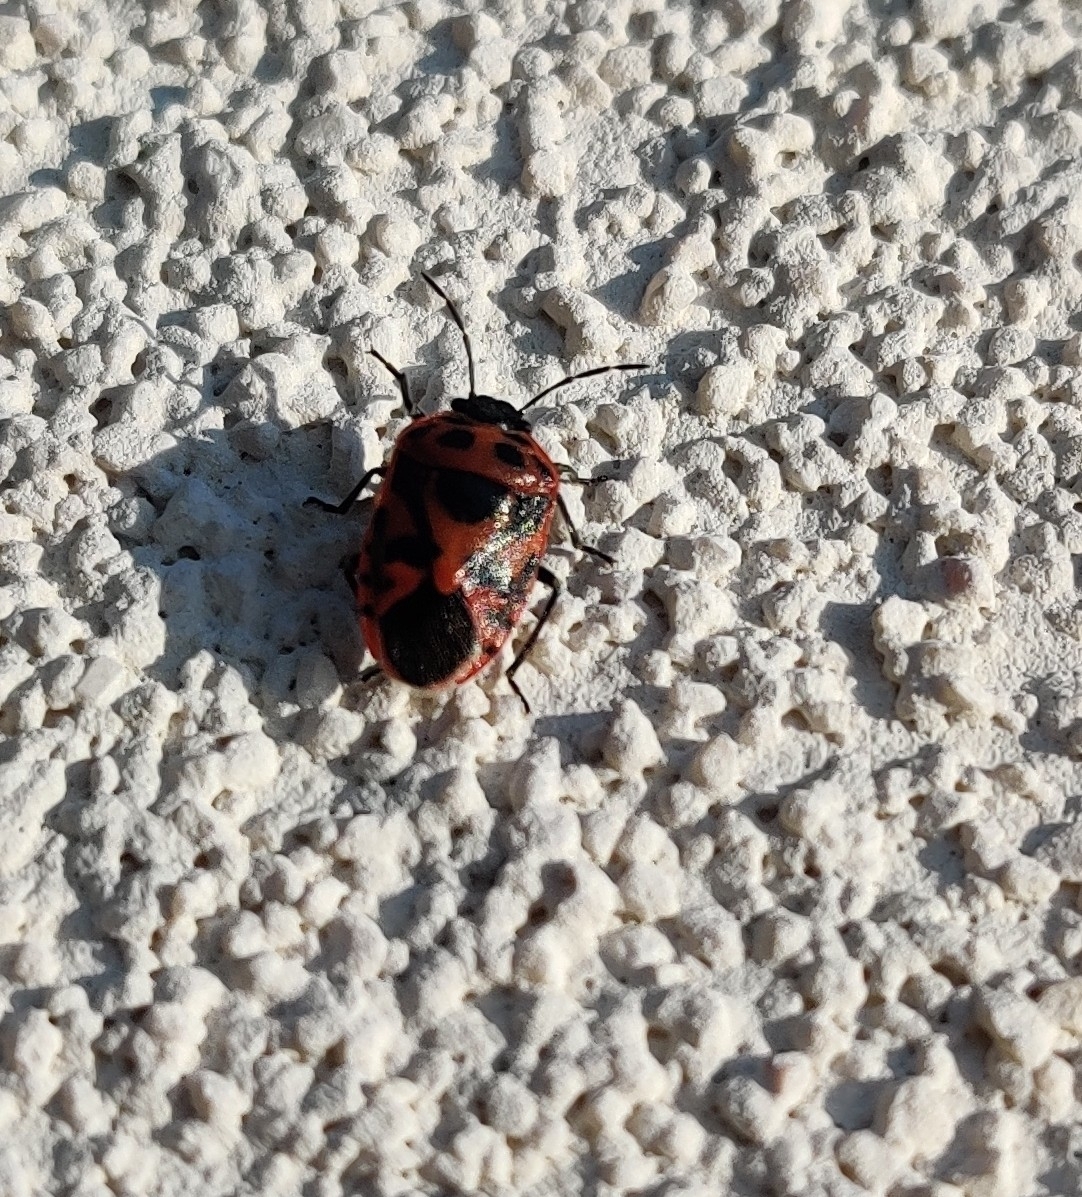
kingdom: Animalia
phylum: Arthropoda
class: Insecta
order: Hemiptera
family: Pentatomidae
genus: Eurydema
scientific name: Eurydema ornata
